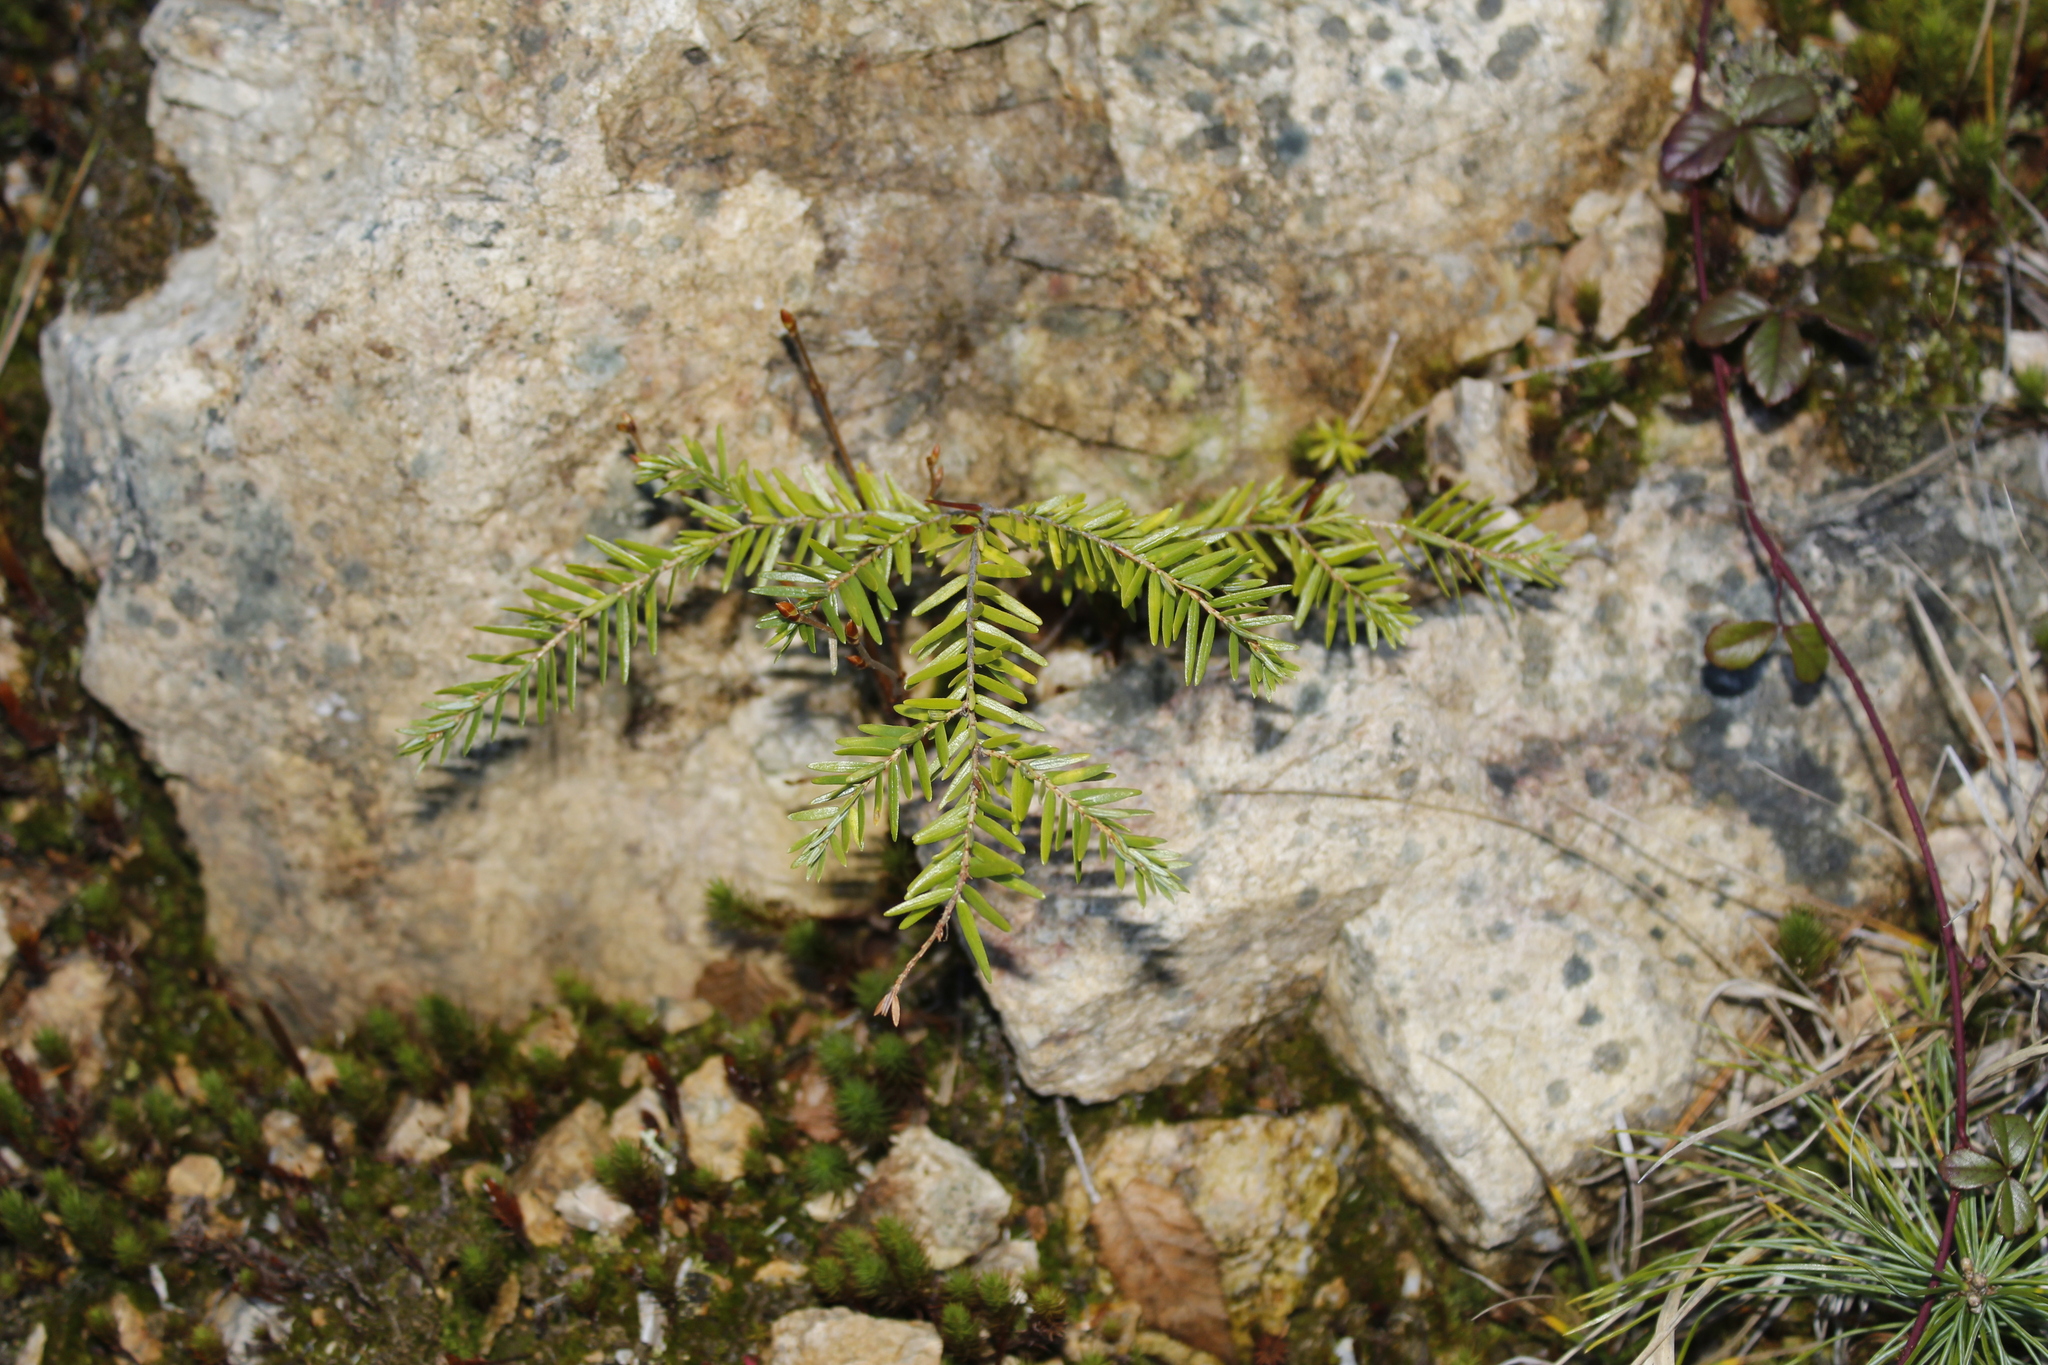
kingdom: Plantae
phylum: Tracheophyta
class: Pinopsida
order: Pinales
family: Pinaceae
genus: Tsuga
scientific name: Tsuga canadensis
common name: Eastern hemlock
